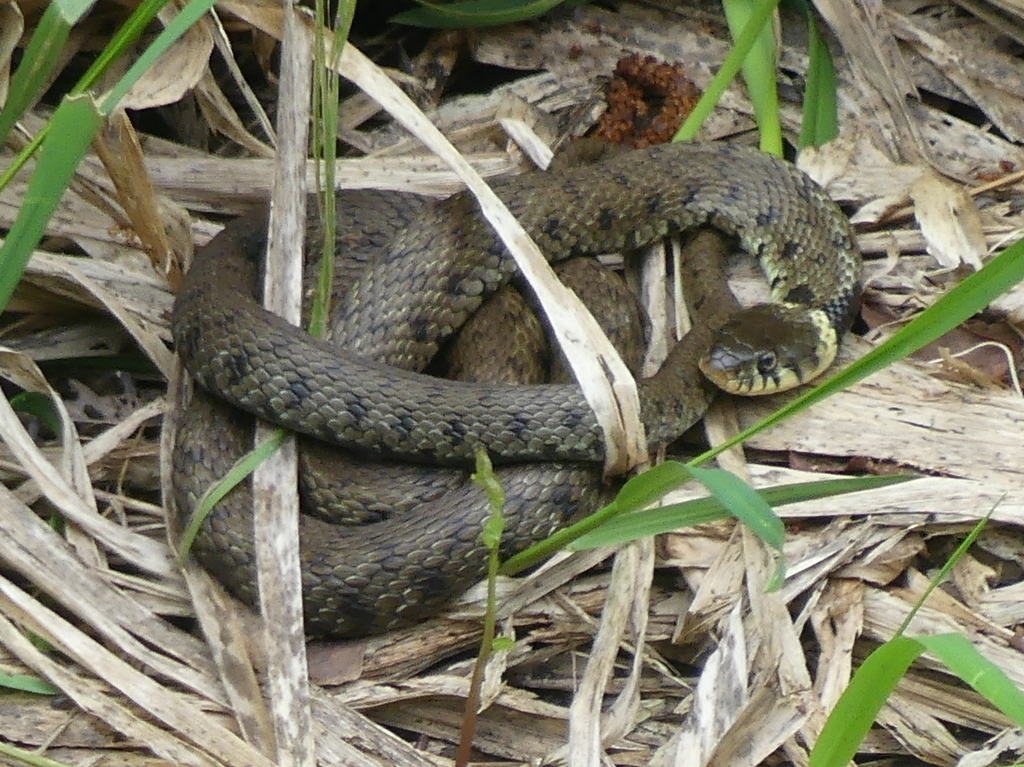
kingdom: Animalia
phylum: Chordata
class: Squamata
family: Colubridae
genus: Natrix
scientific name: Natrix helvetica
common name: Banded grass snake
